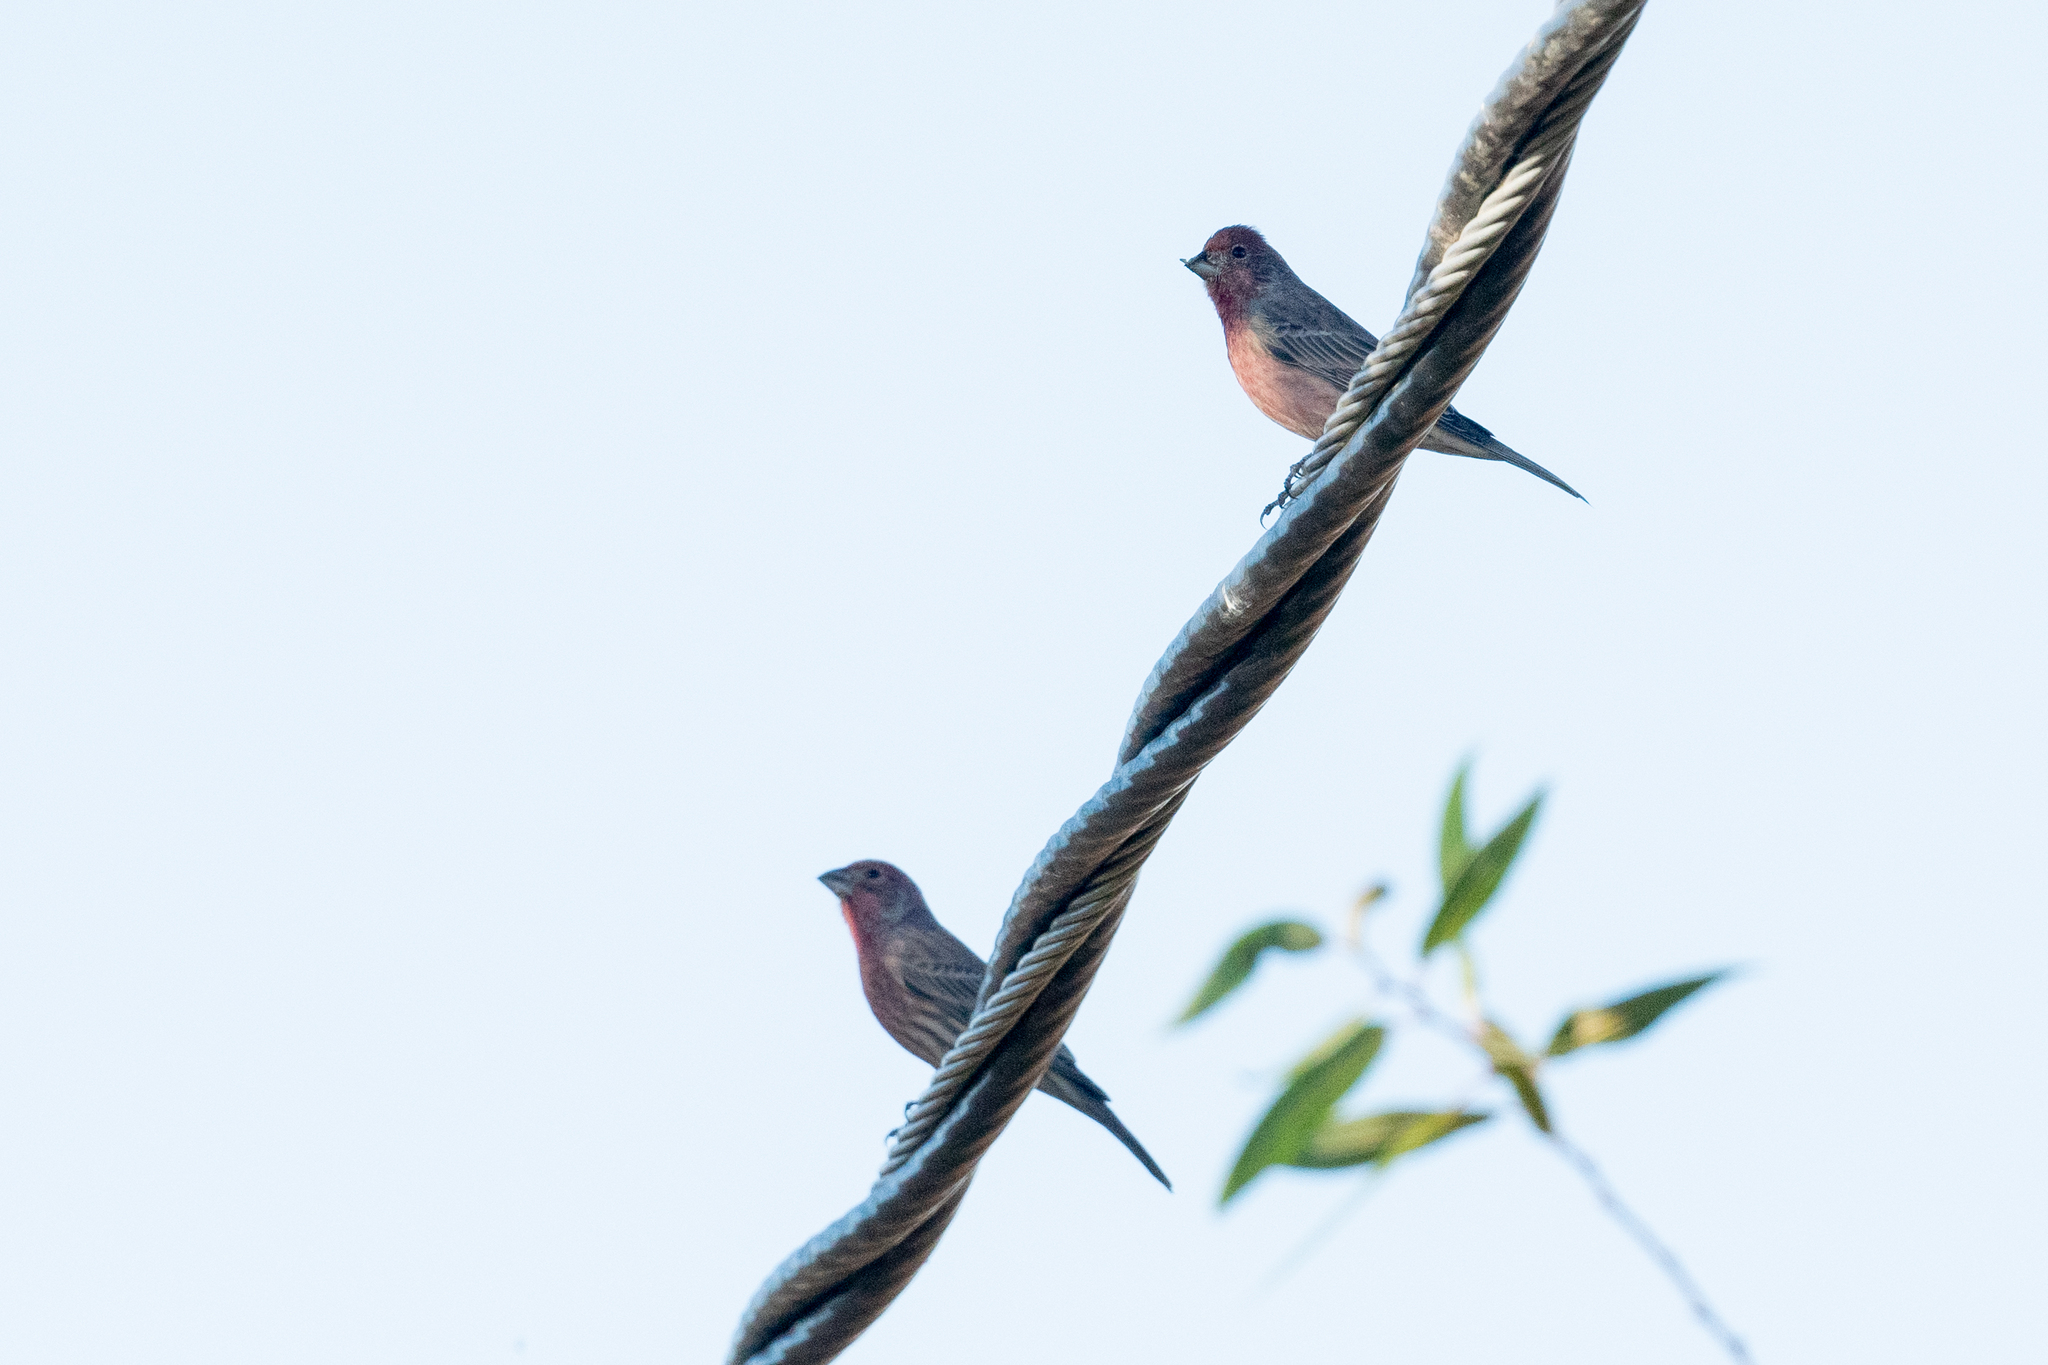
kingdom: Animalia
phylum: Chordata
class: Aves
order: Passeriformes
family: Fringillidae
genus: Haemorhous
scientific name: Haemorhous mexicanus
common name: House finch
